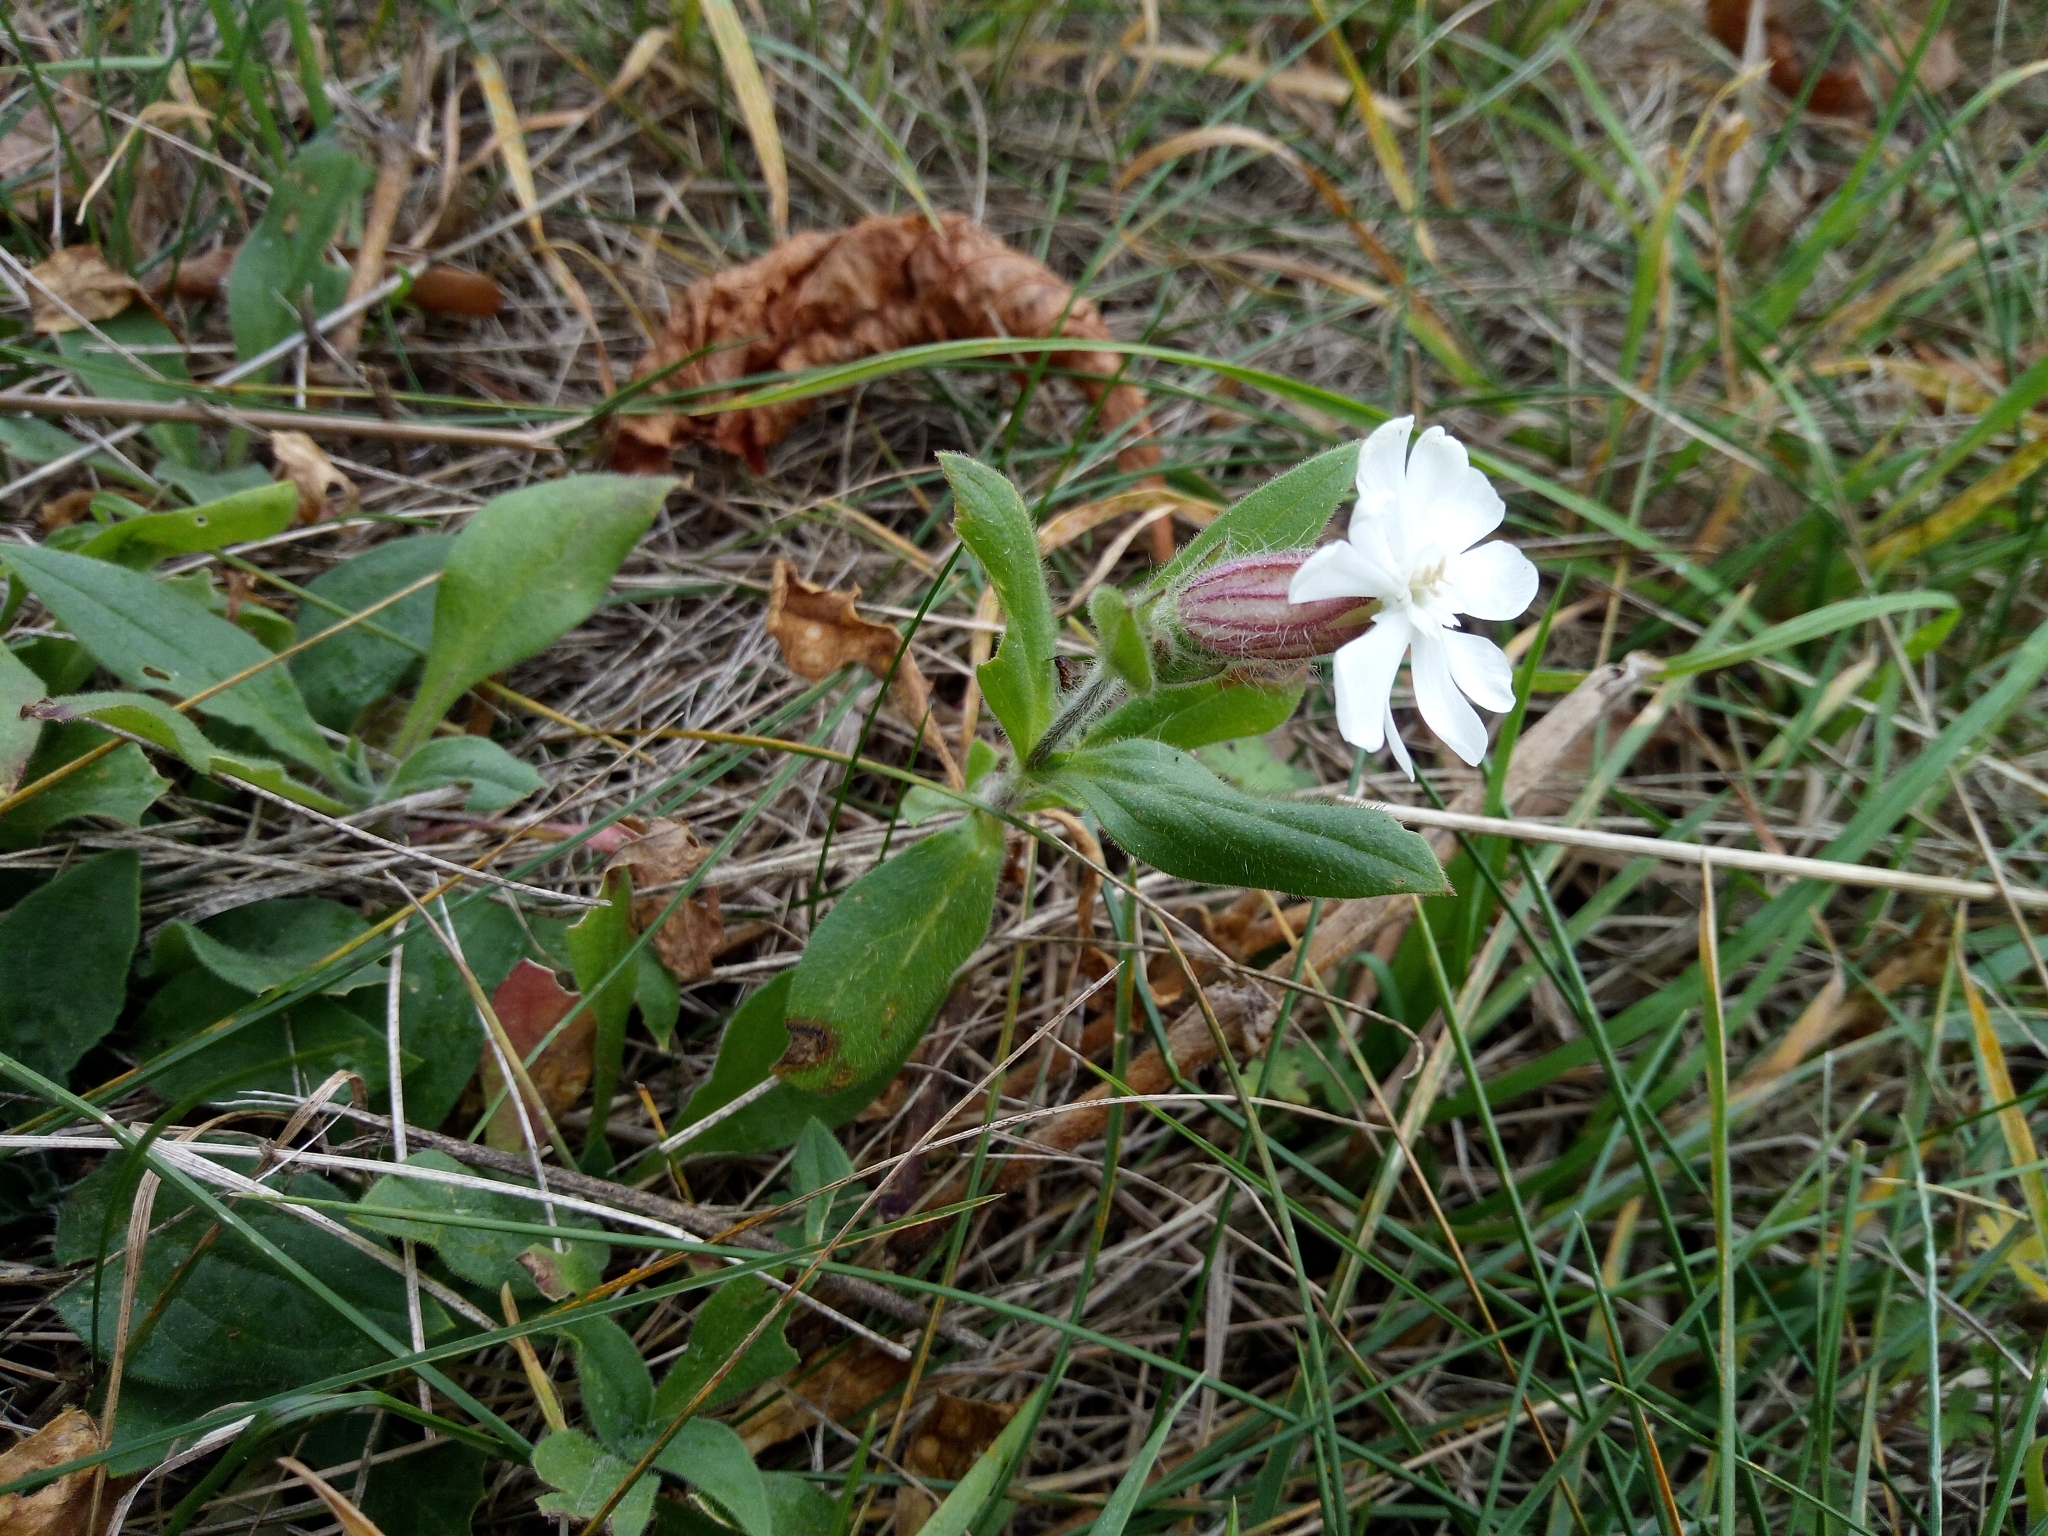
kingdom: Plantae
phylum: Tracheophyta
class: Magnoliopsida
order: Caryophyllales
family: Caryophyllaceae
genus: Silene
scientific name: Silene latifolia
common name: White campion
